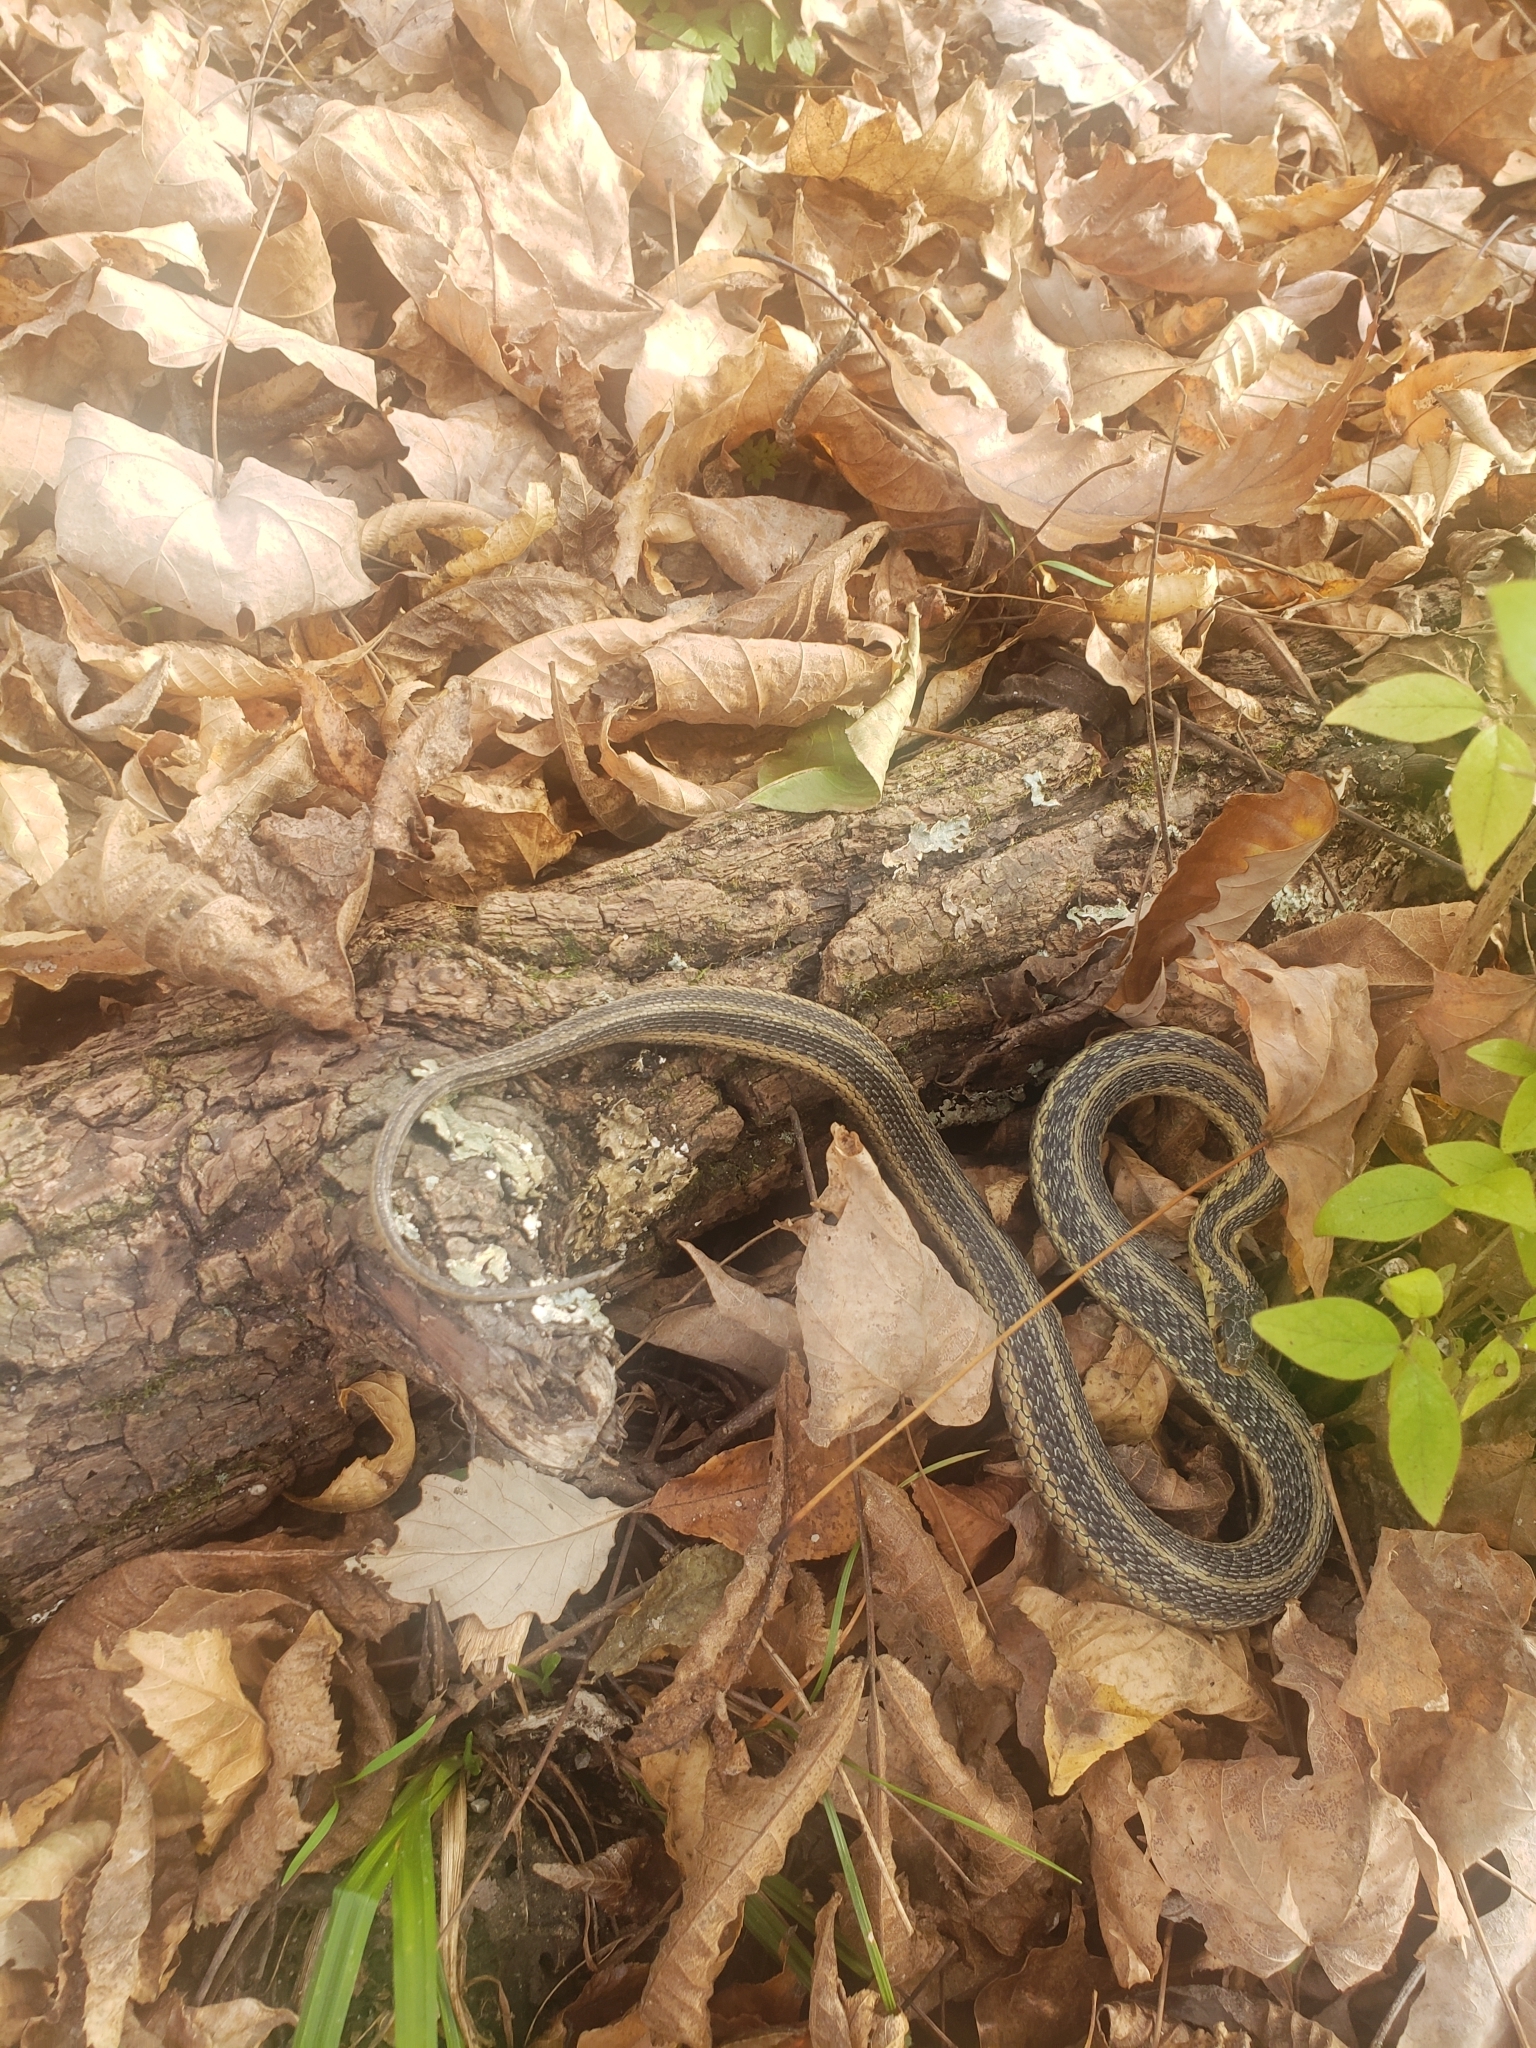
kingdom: Animalia
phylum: Chordata
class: Squamata
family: Colubridae
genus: Thamnophis
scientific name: Thamnophis sirtalis
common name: Common garter snake
